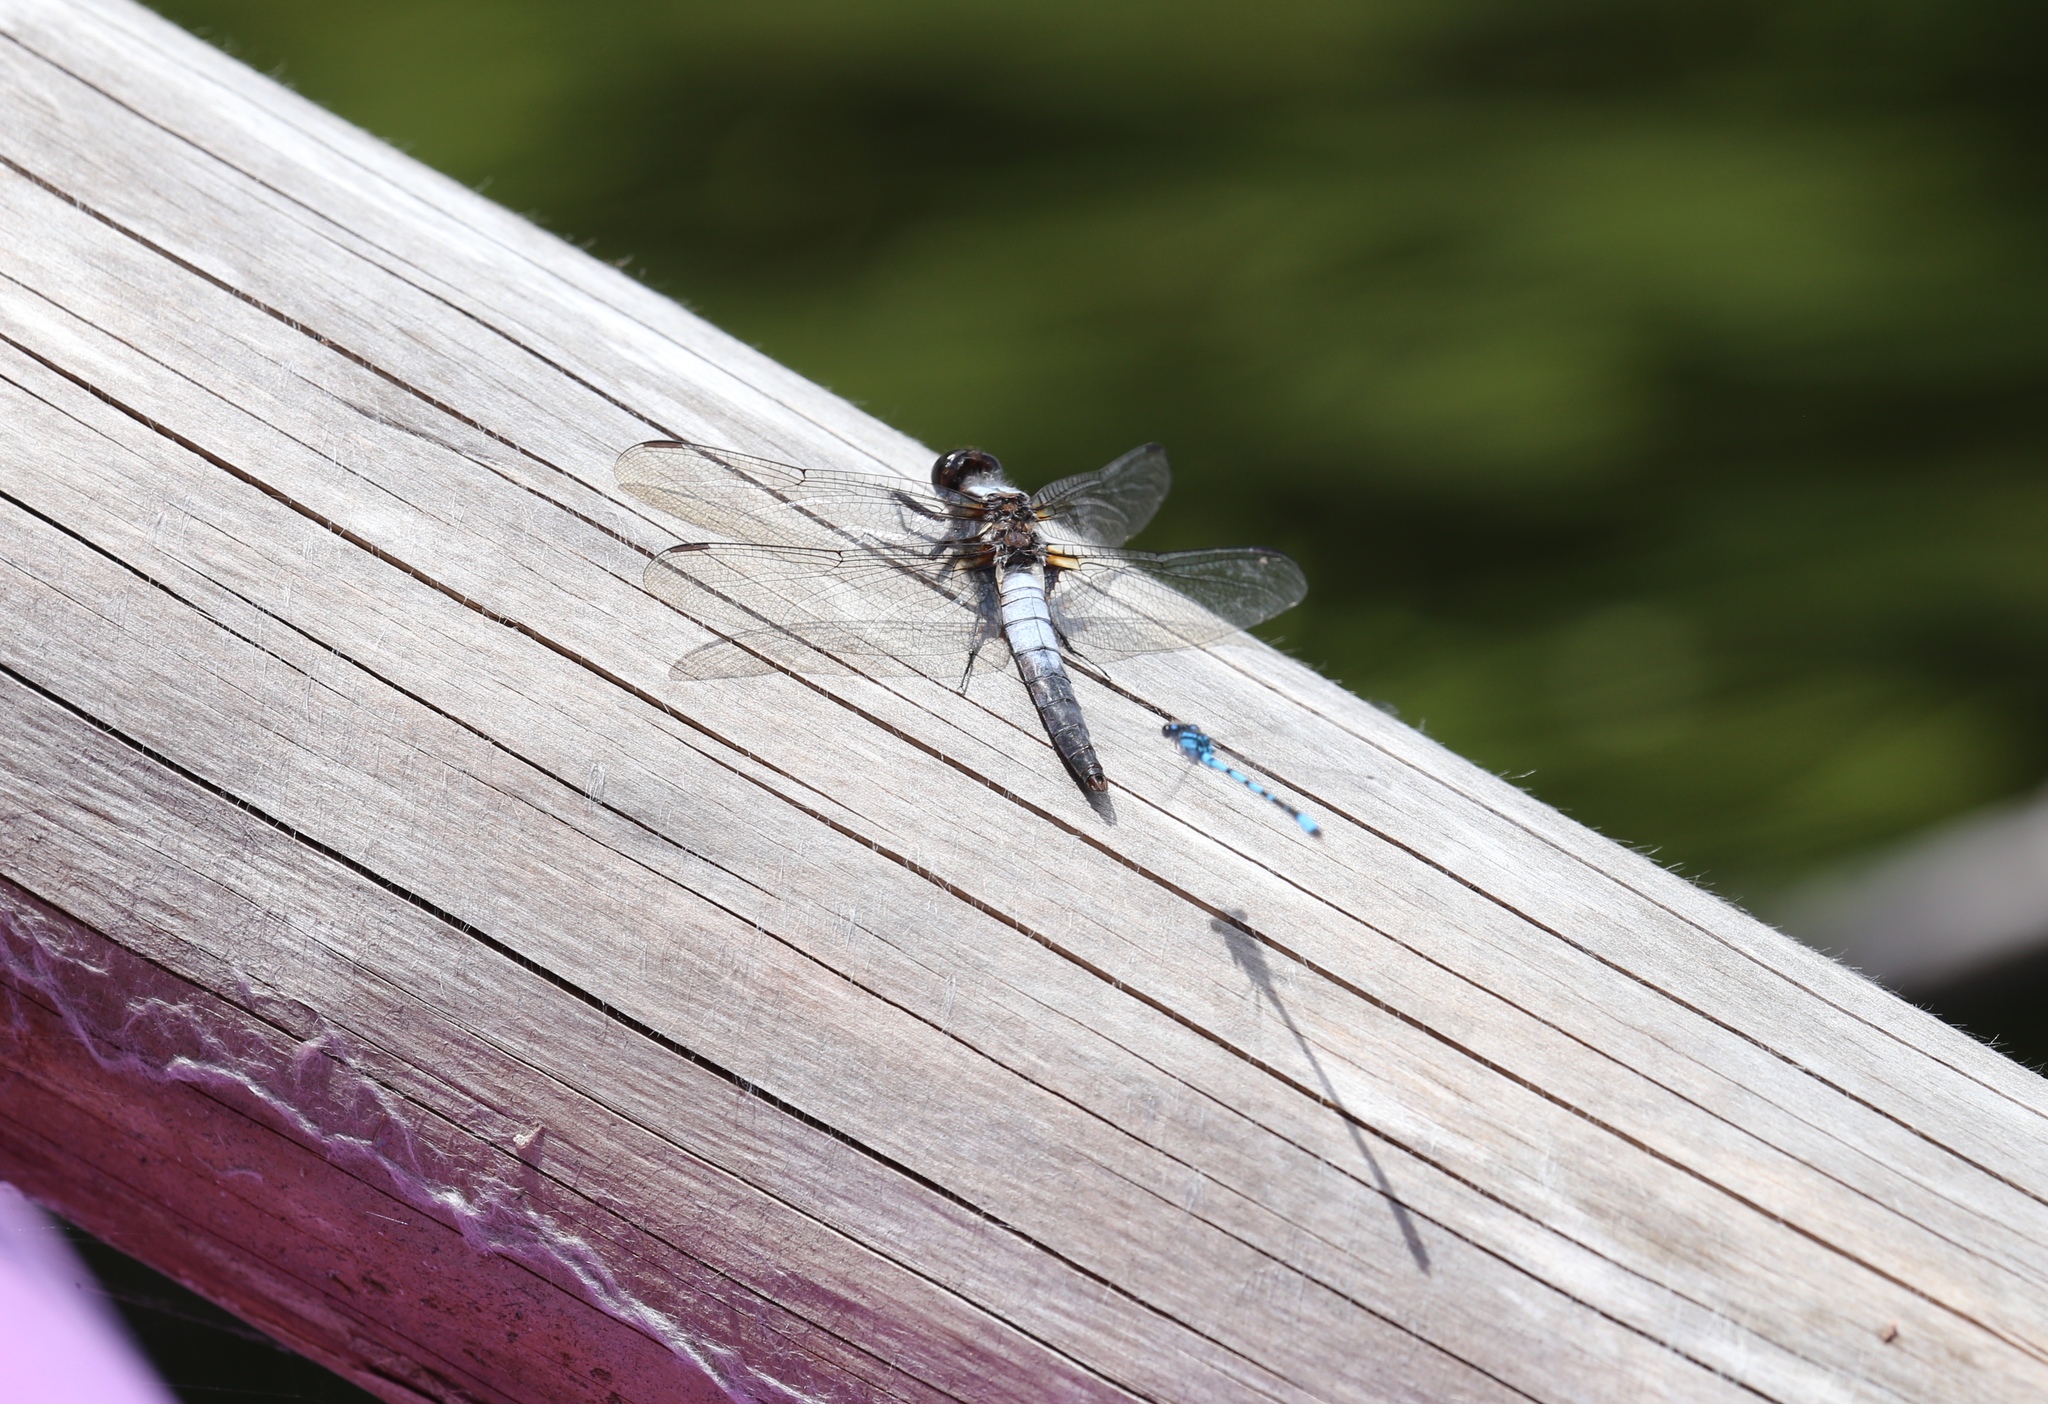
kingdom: Animalia
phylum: Arthropoda
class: Insecta
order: Odonata
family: Libellulidae
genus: Ladona
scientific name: Ladona julia
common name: Chalk-fronted corporal
